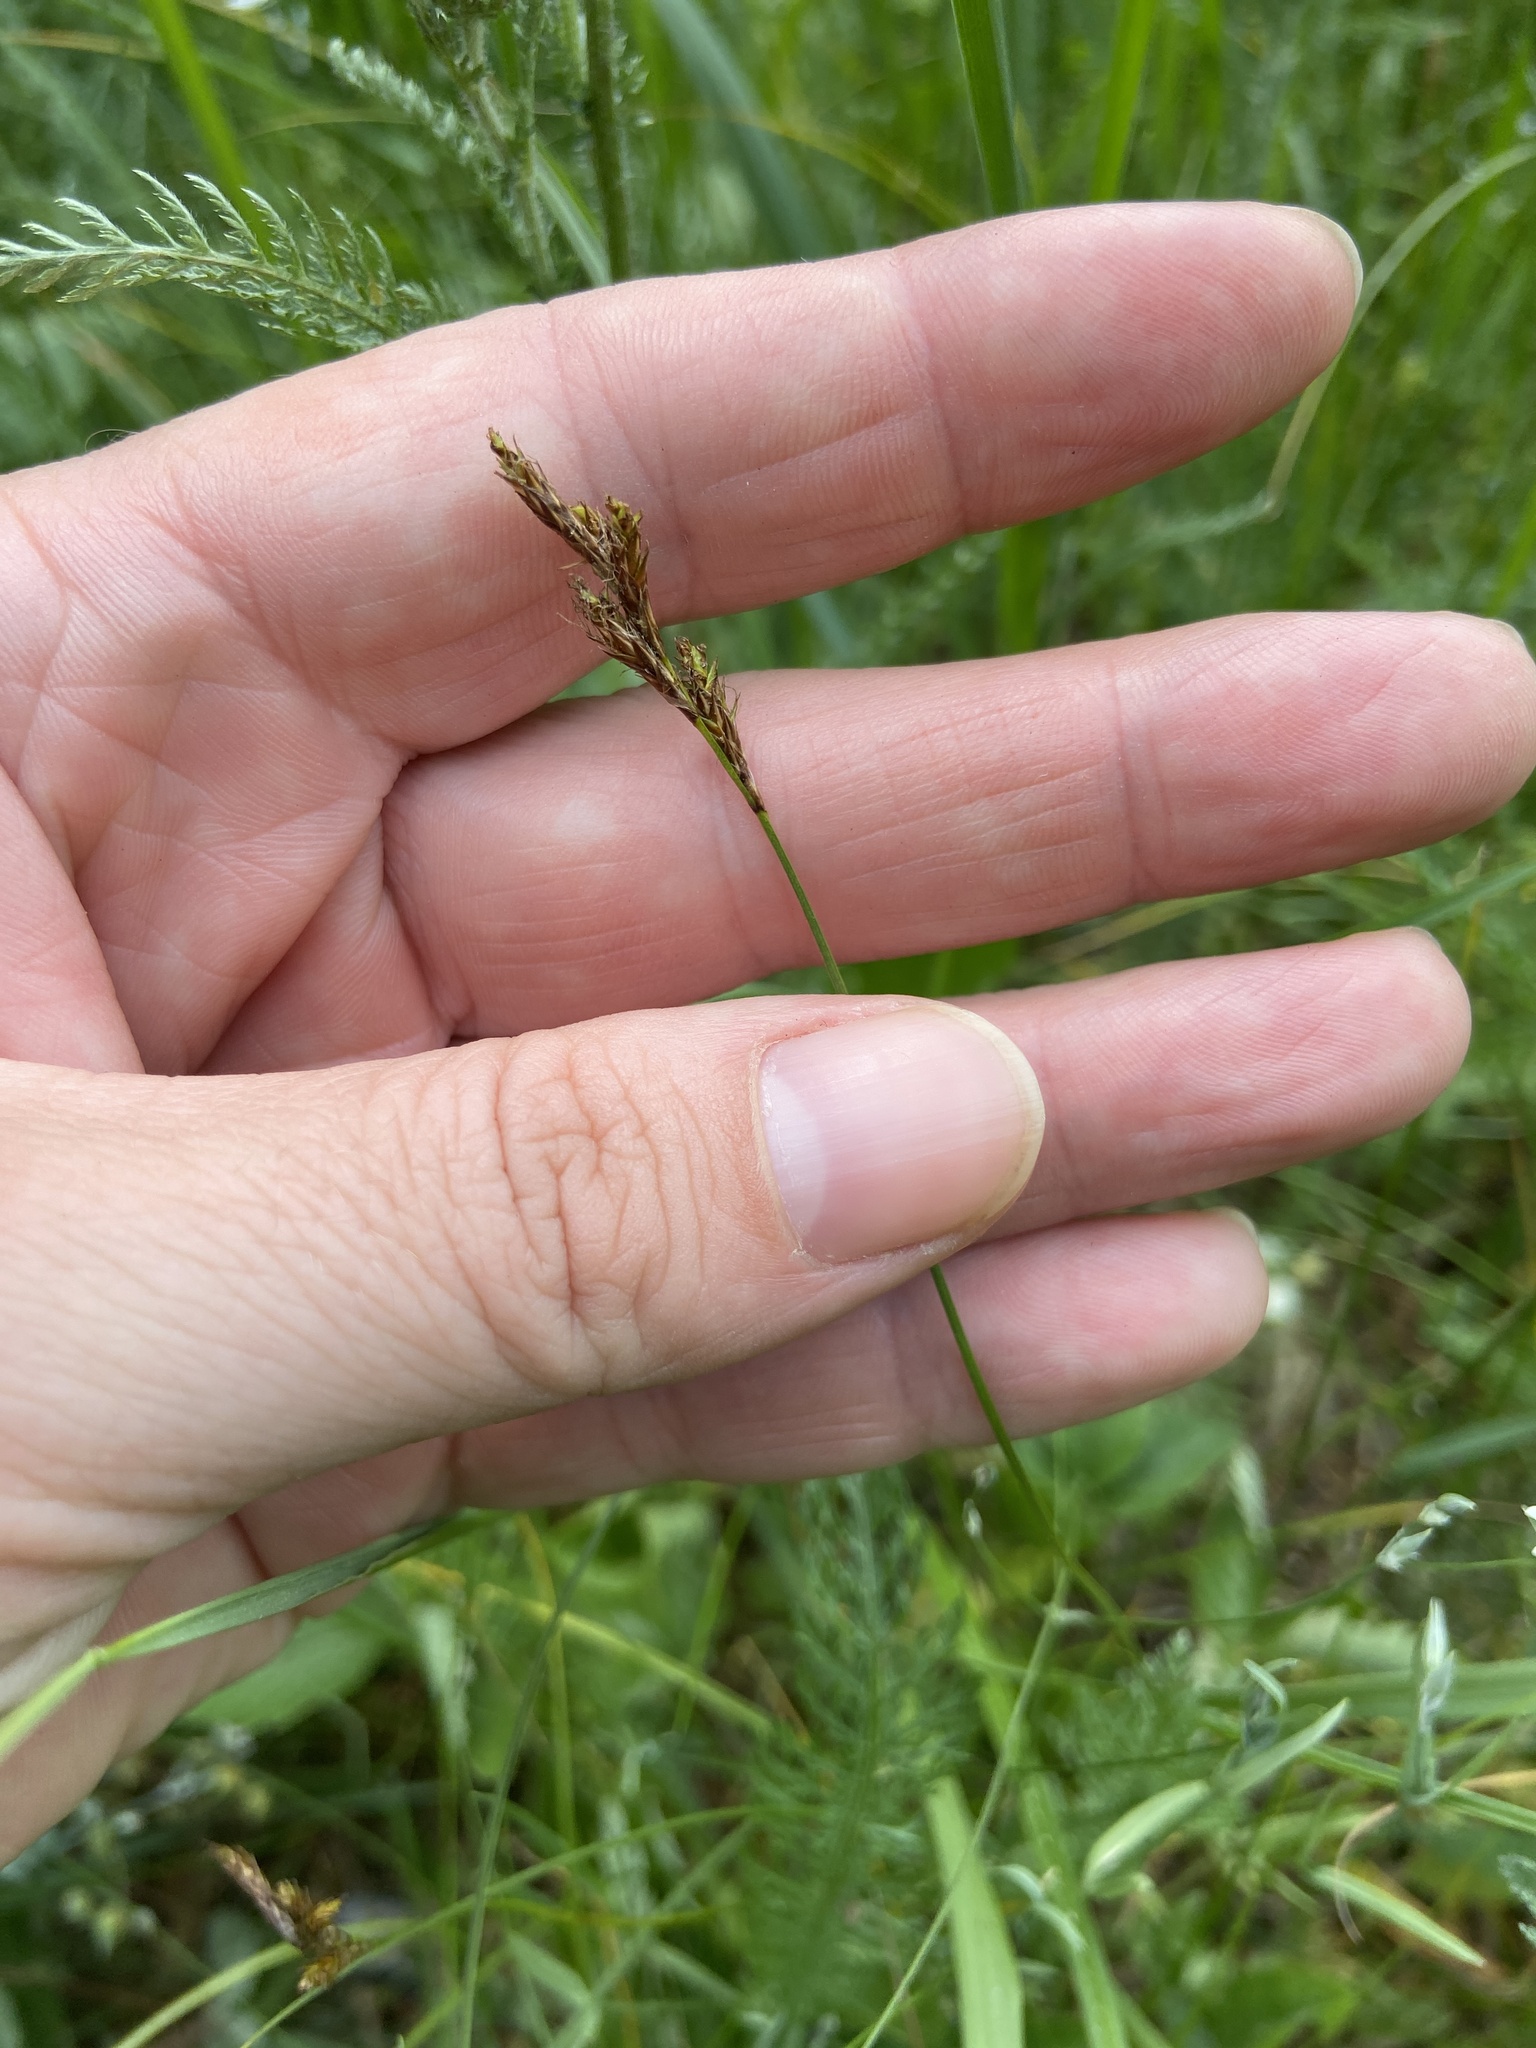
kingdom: Plantae
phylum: Tracheophyta
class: Liliopsida
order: Poales
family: Cyperaceae
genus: Carex
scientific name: Carex praecox
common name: Early sedge
